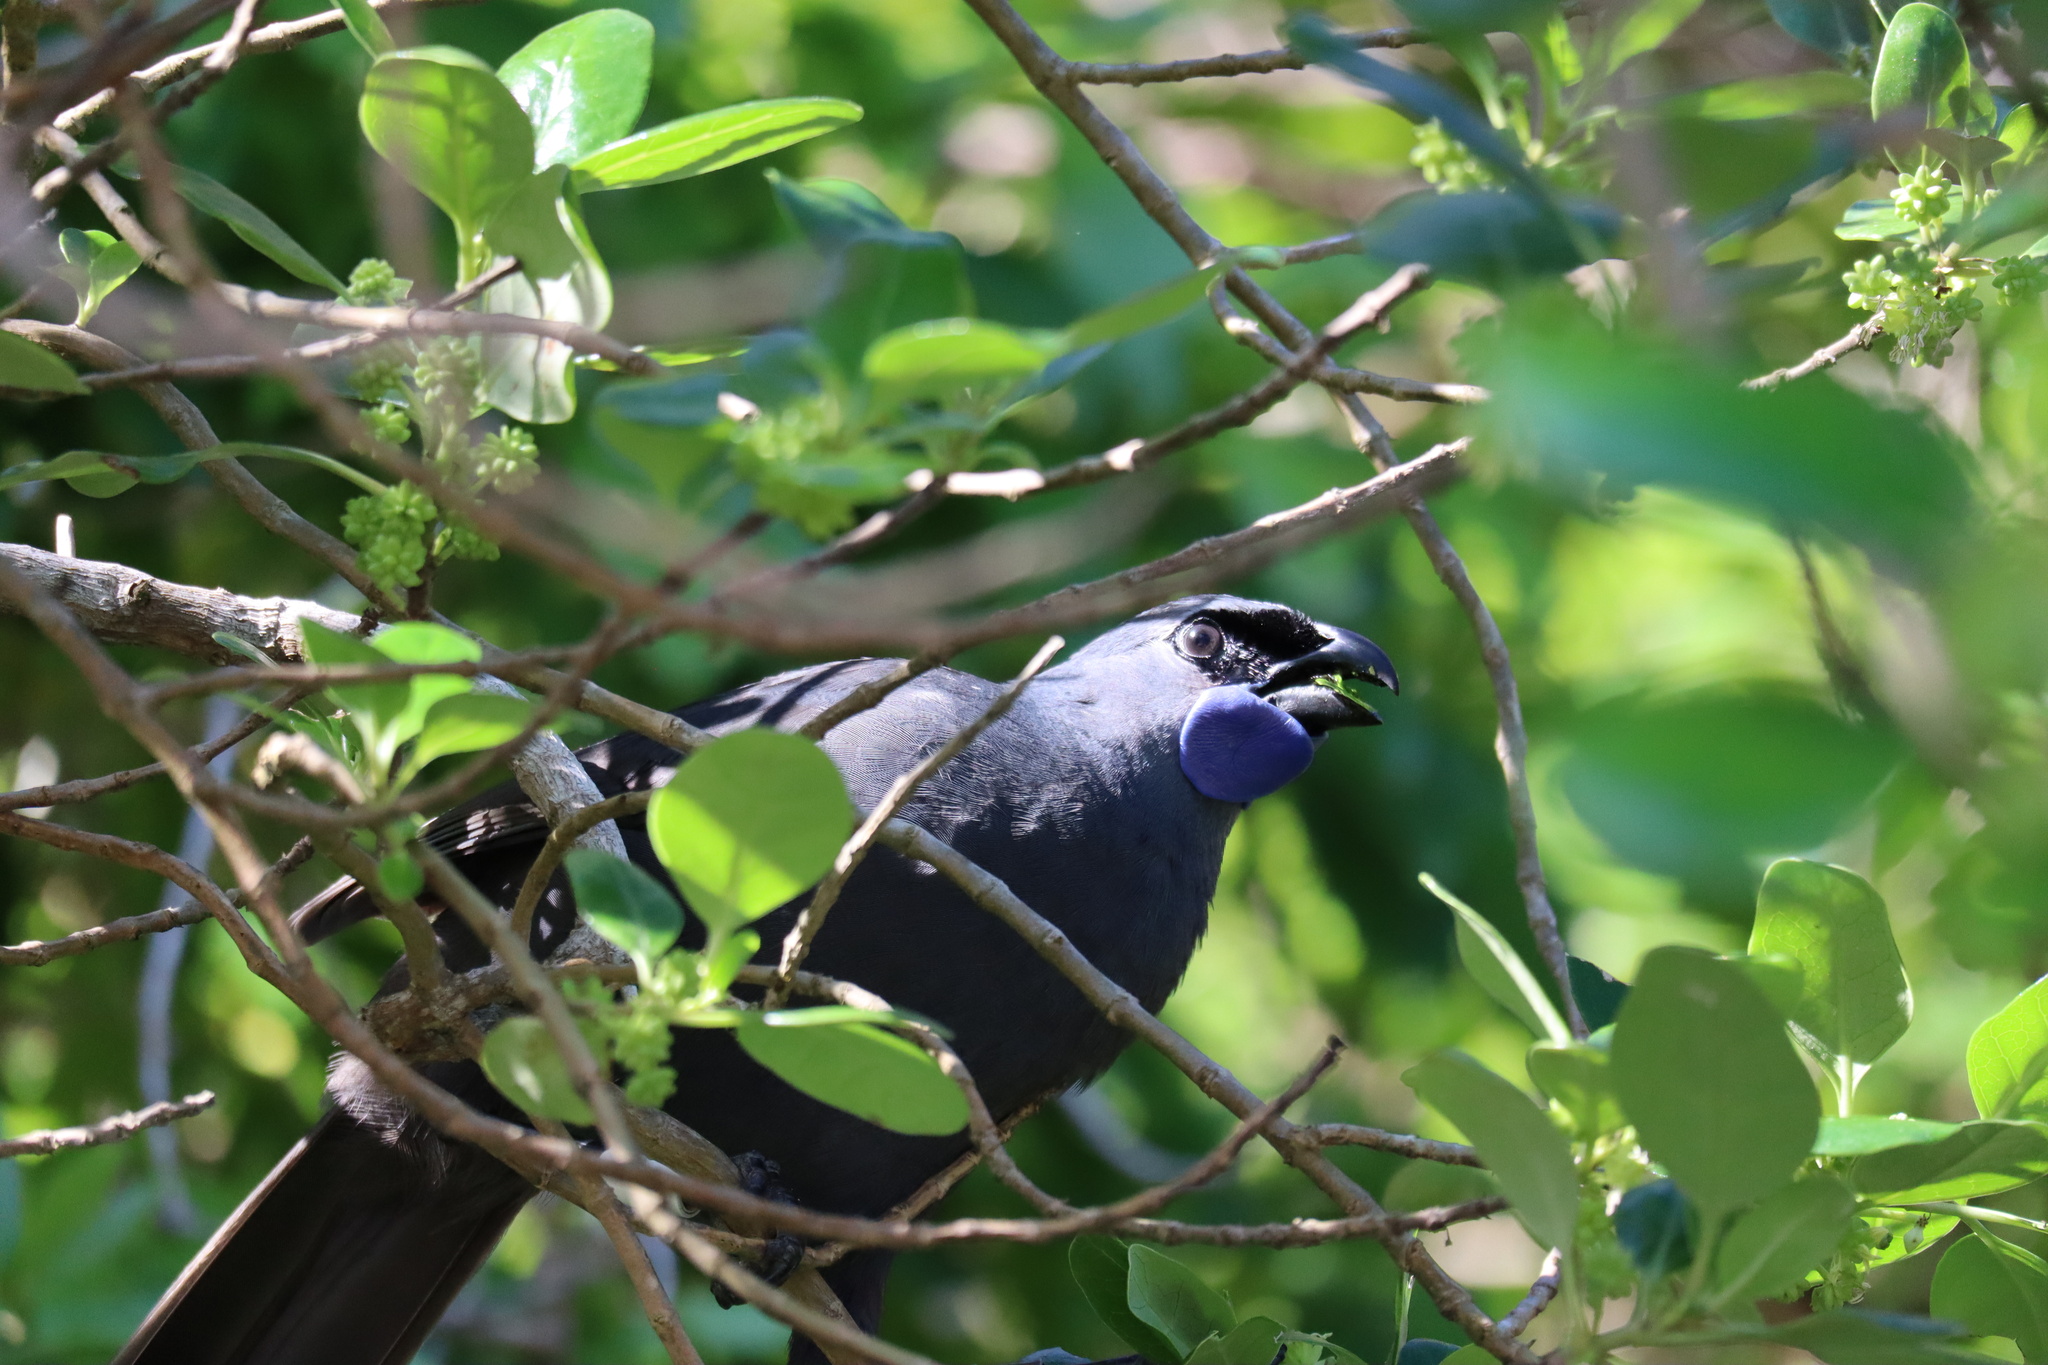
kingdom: Animalia
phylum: Chordata
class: Aves
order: Passeriformes
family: Callaeatidae
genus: Callaeas
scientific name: Callaeas cinereus
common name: South island kokako
